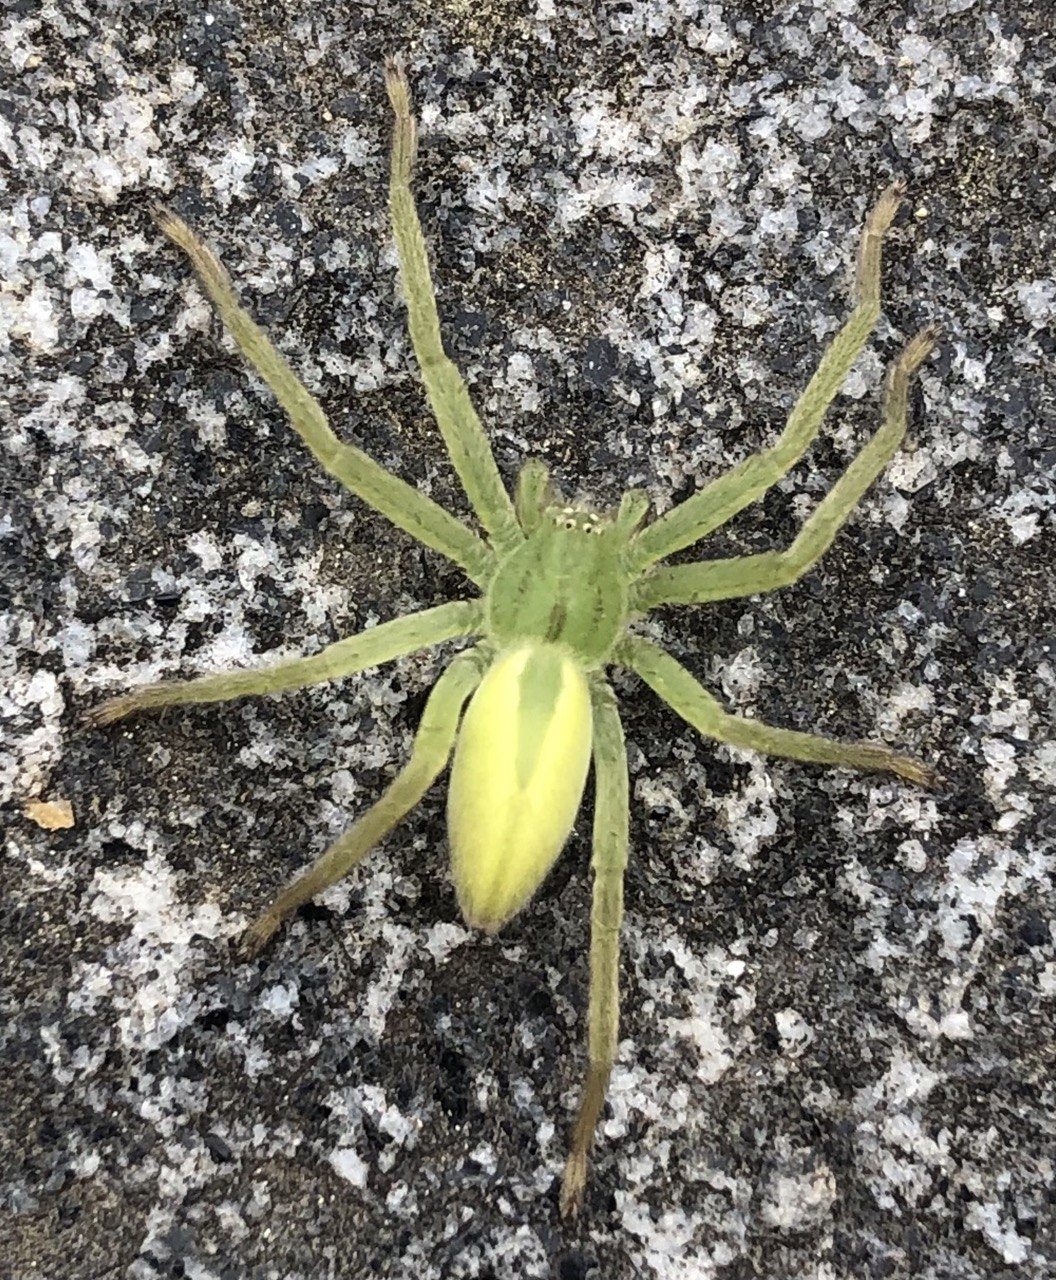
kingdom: Animalia
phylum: Arthropoda
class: Arachnida
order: Araneae
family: Sparassidae
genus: Micrommata
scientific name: Micrommata virescens
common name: Green spider
